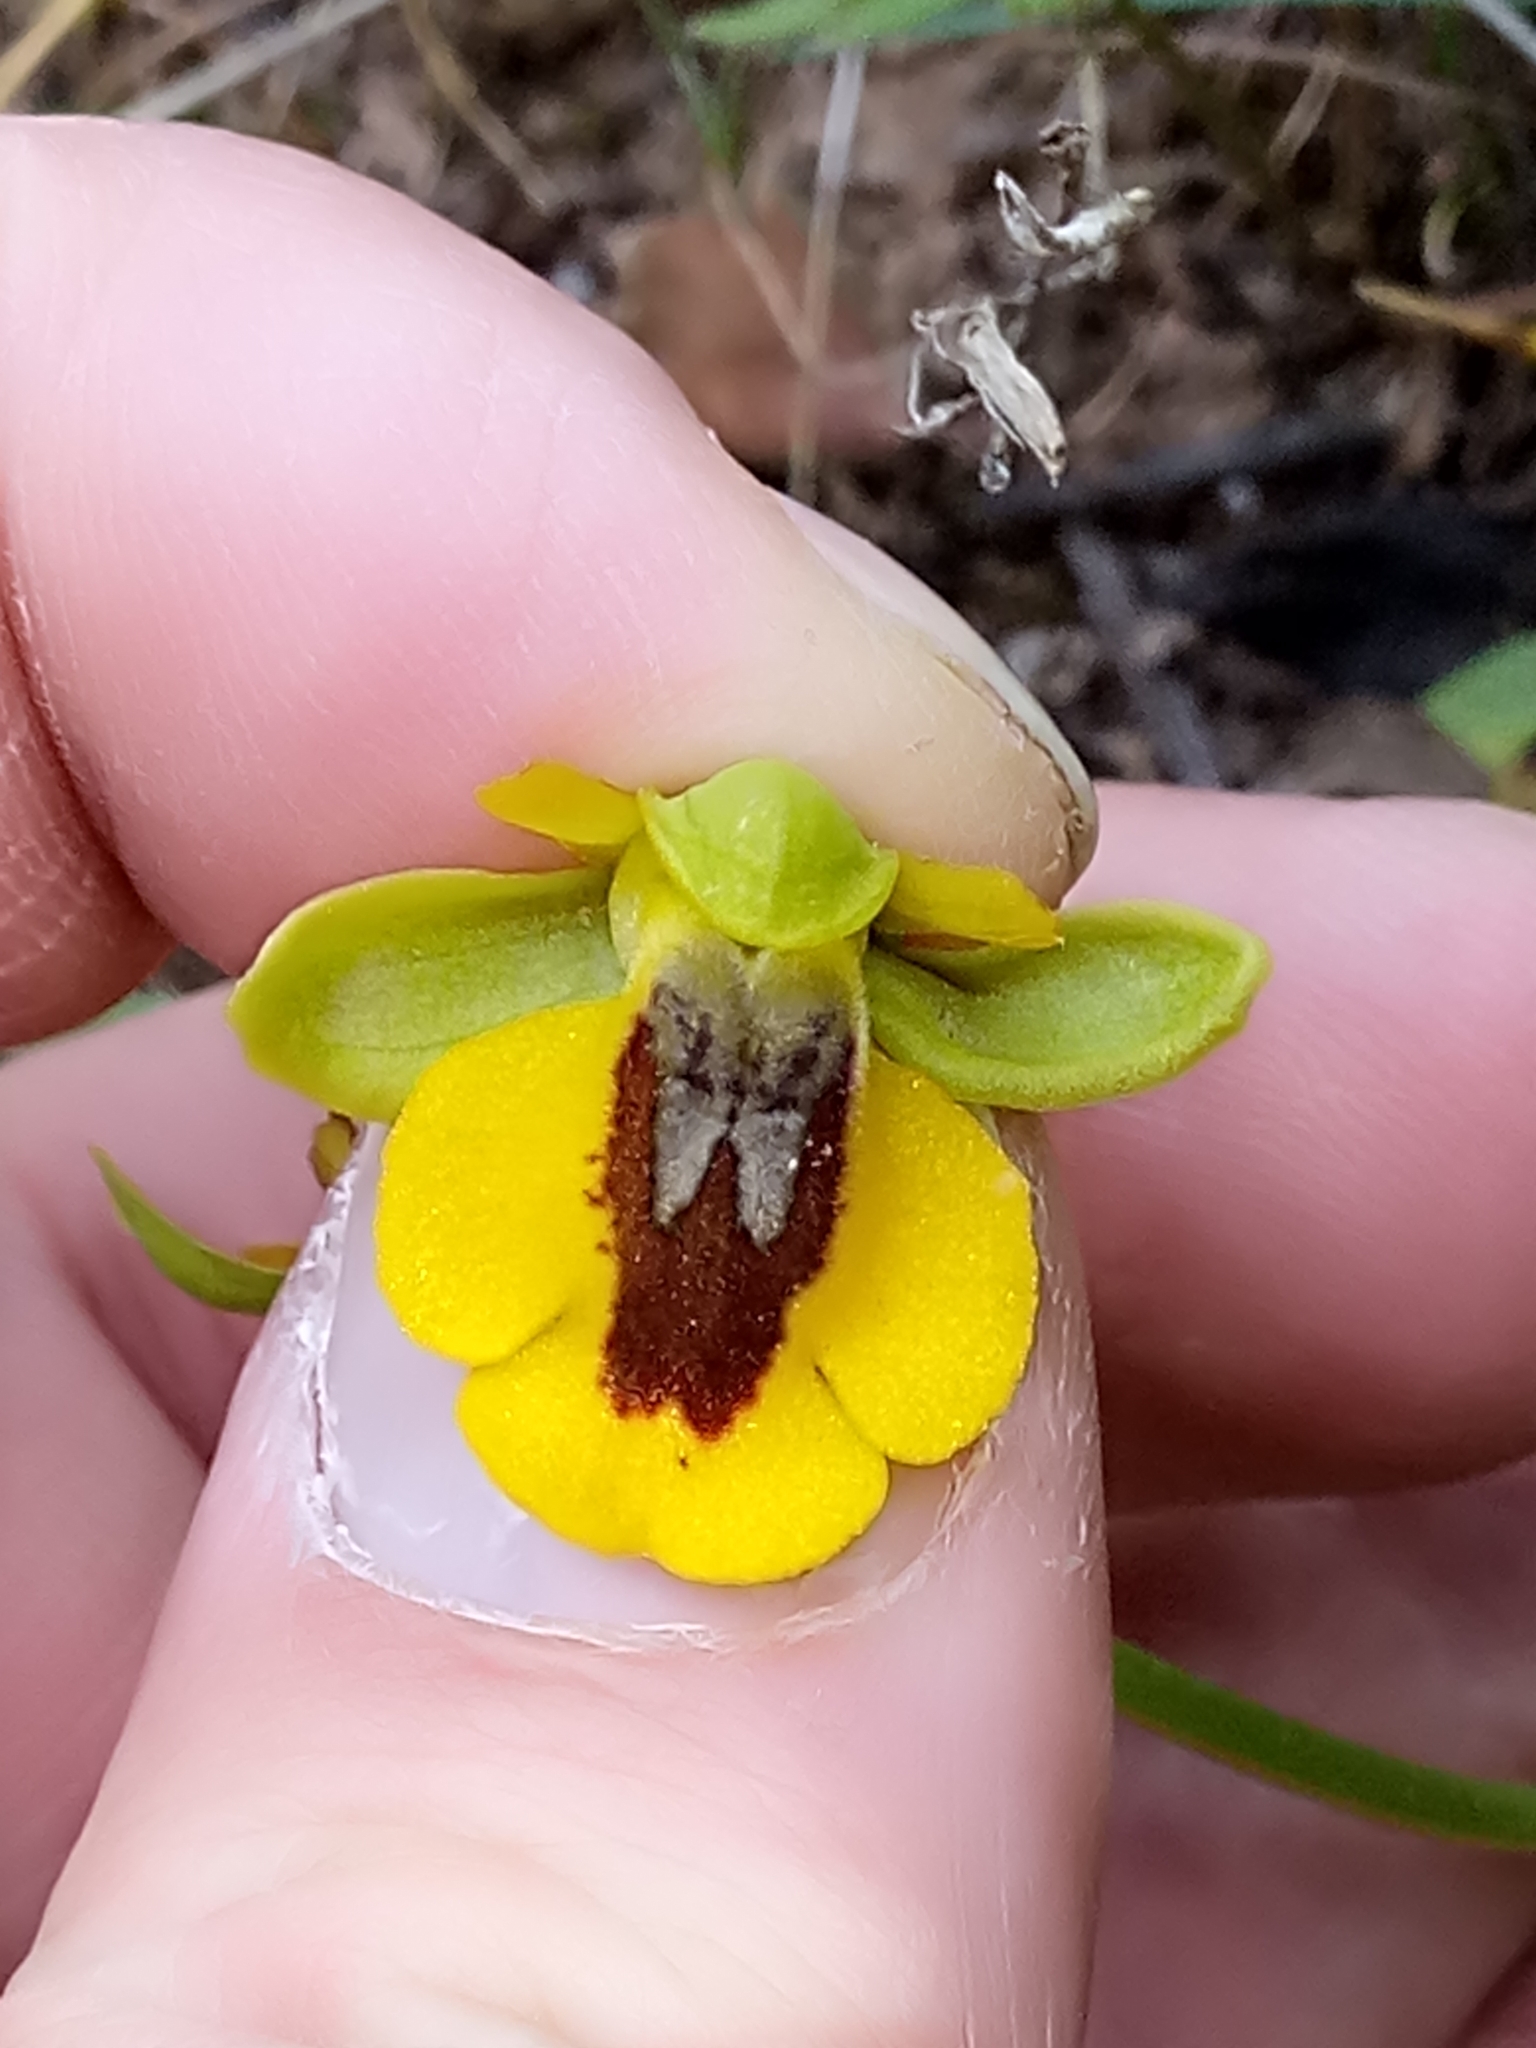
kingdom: Plantae
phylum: Tracheophyta
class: Liliopsida
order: Asparagales
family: Orchidaceae
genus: Ophrys
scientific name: Ophrys lutea
